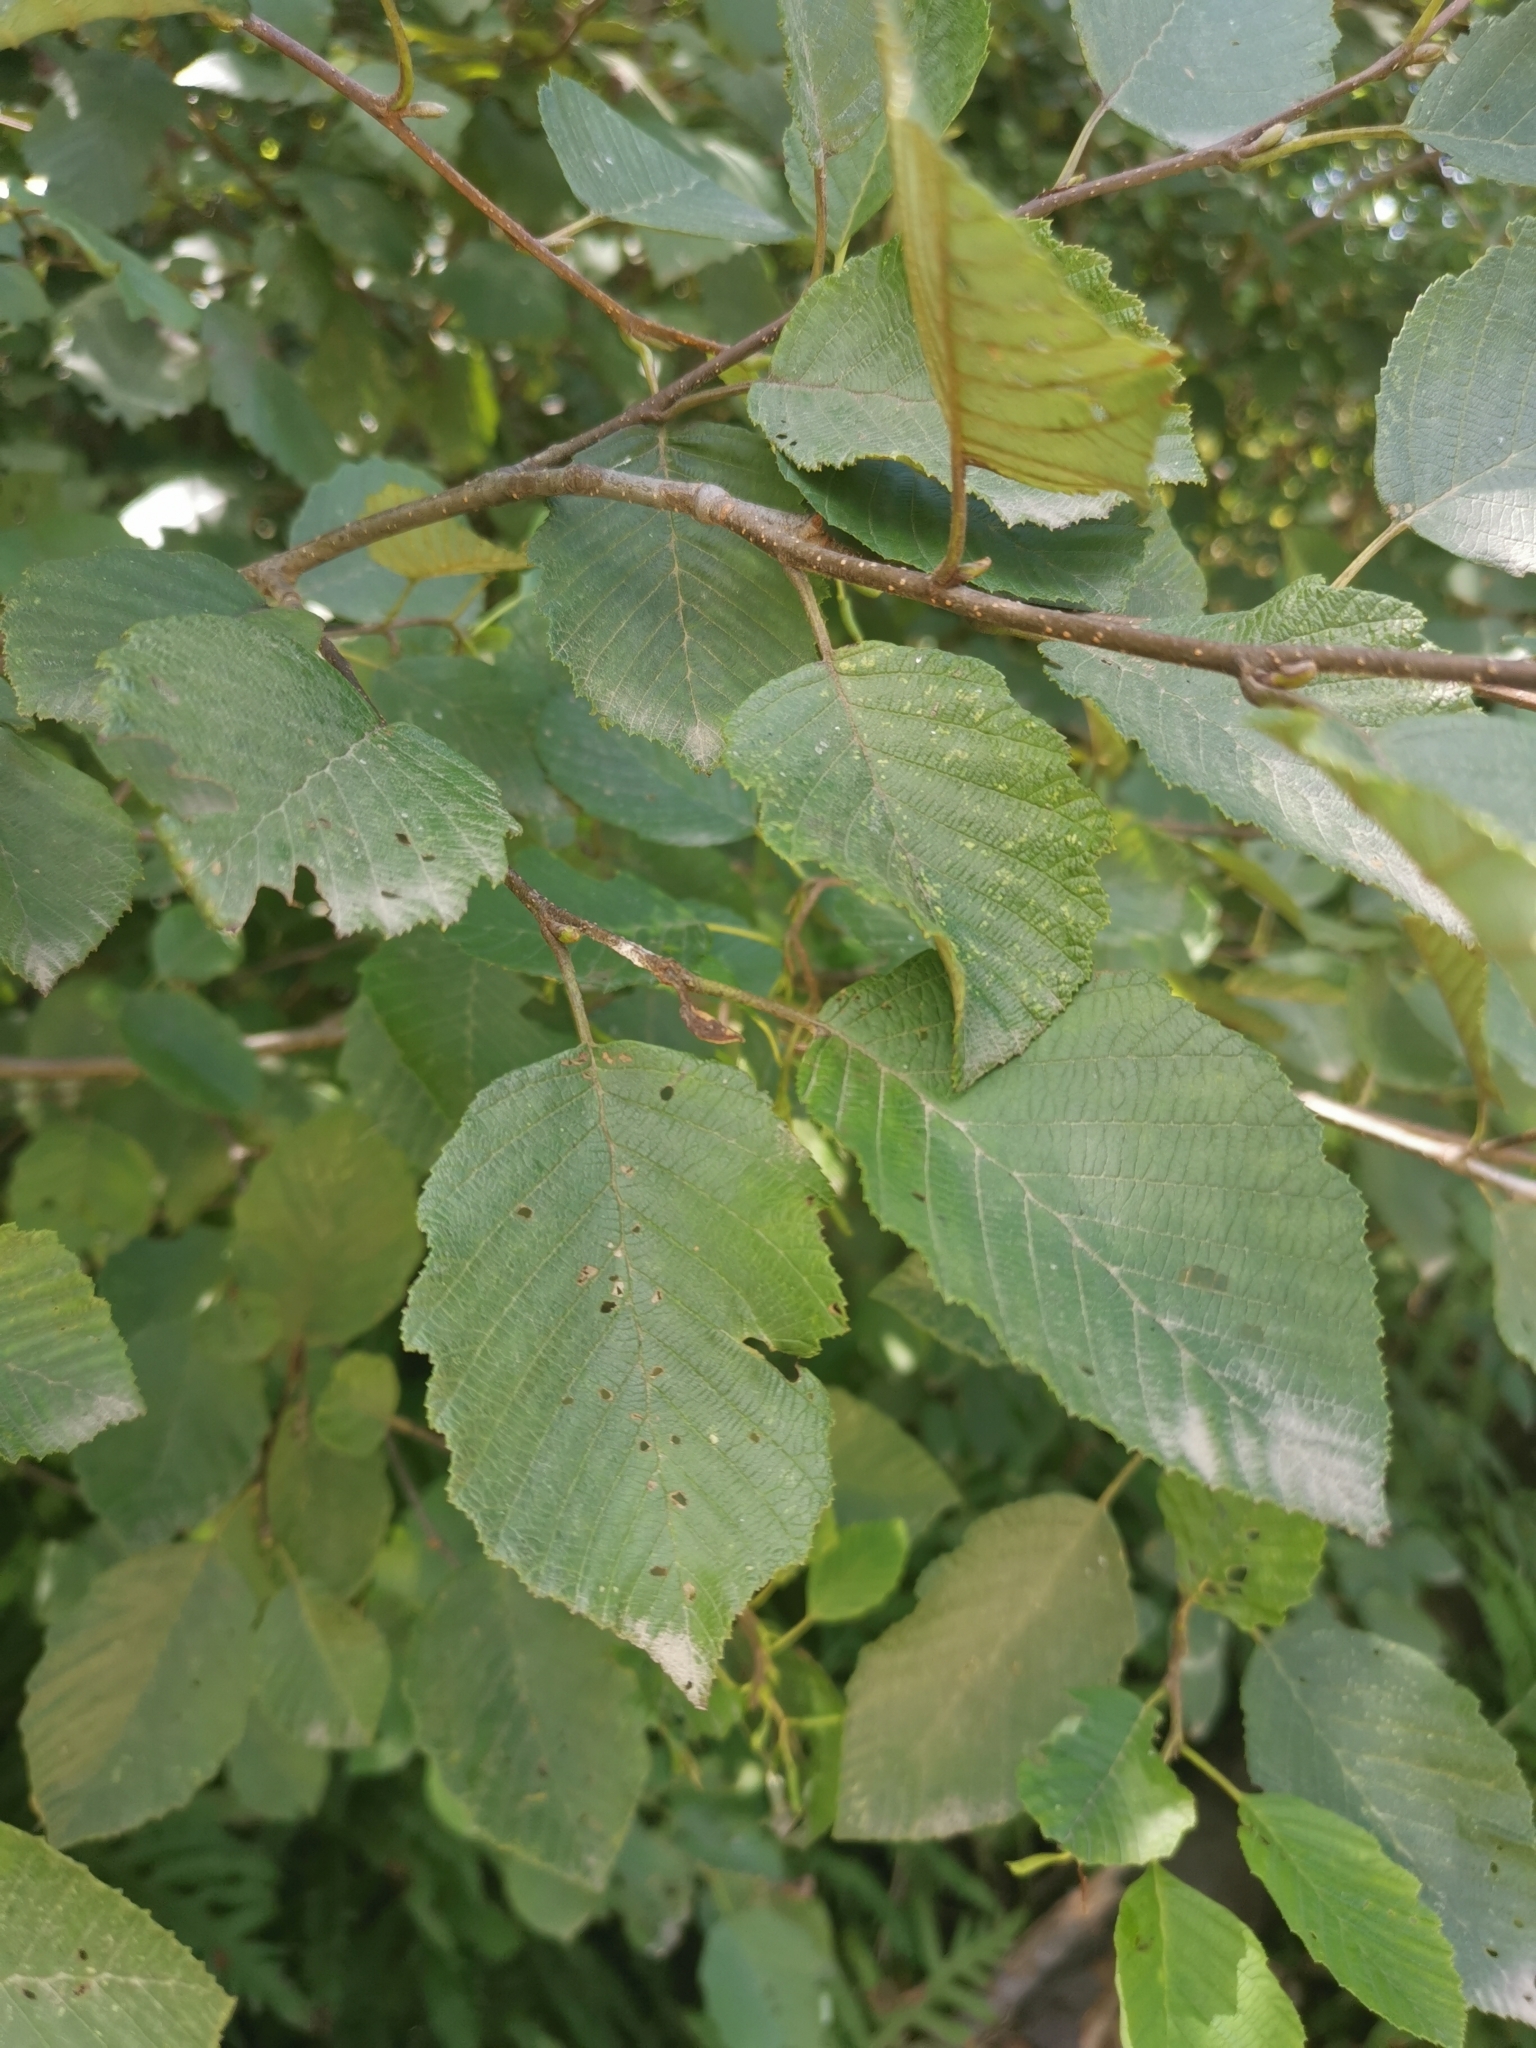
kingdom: Plantae
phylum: Tracheophyta
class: Magnoliopsida
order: Fagales
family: Betulaceae
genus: Alnus
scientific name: Alnus incana
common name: Grey alder
